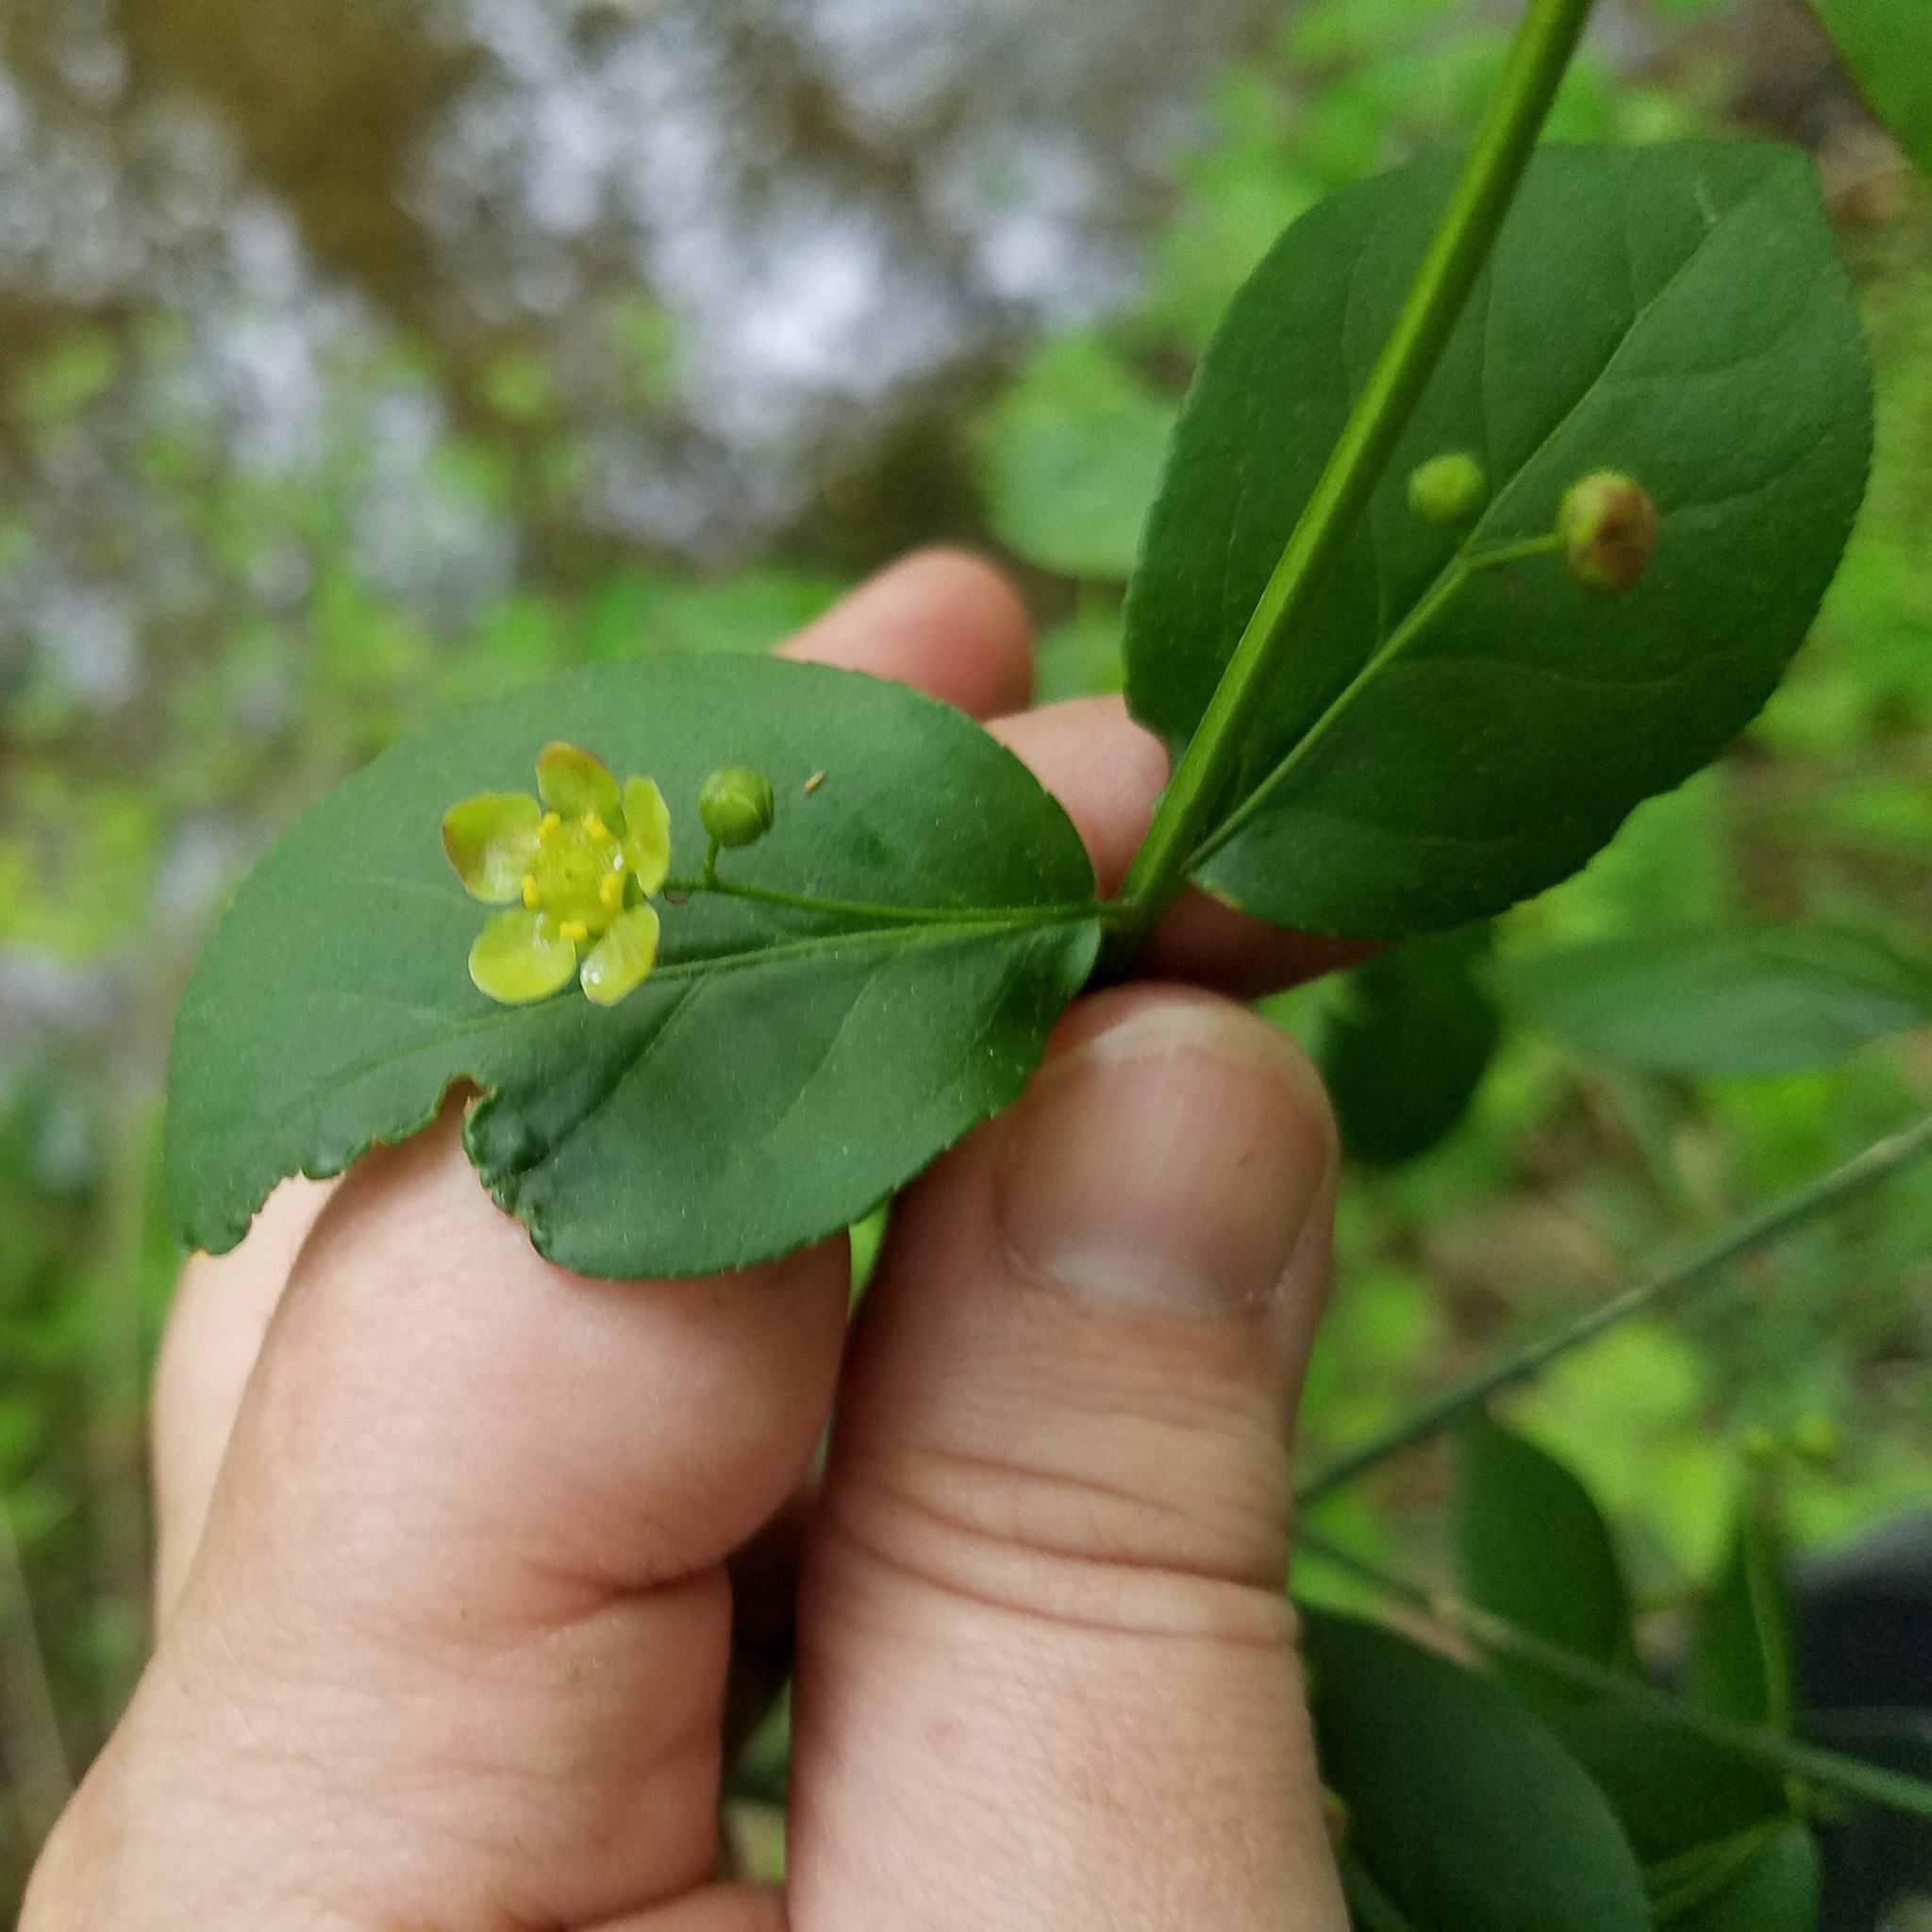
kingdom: Plantae
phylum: Tracheophyta
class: Magnoliopsida
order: Celastrales
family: Celastraceae
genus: Euonymus
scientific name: Euonymus americanus
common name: Bursting-heart
